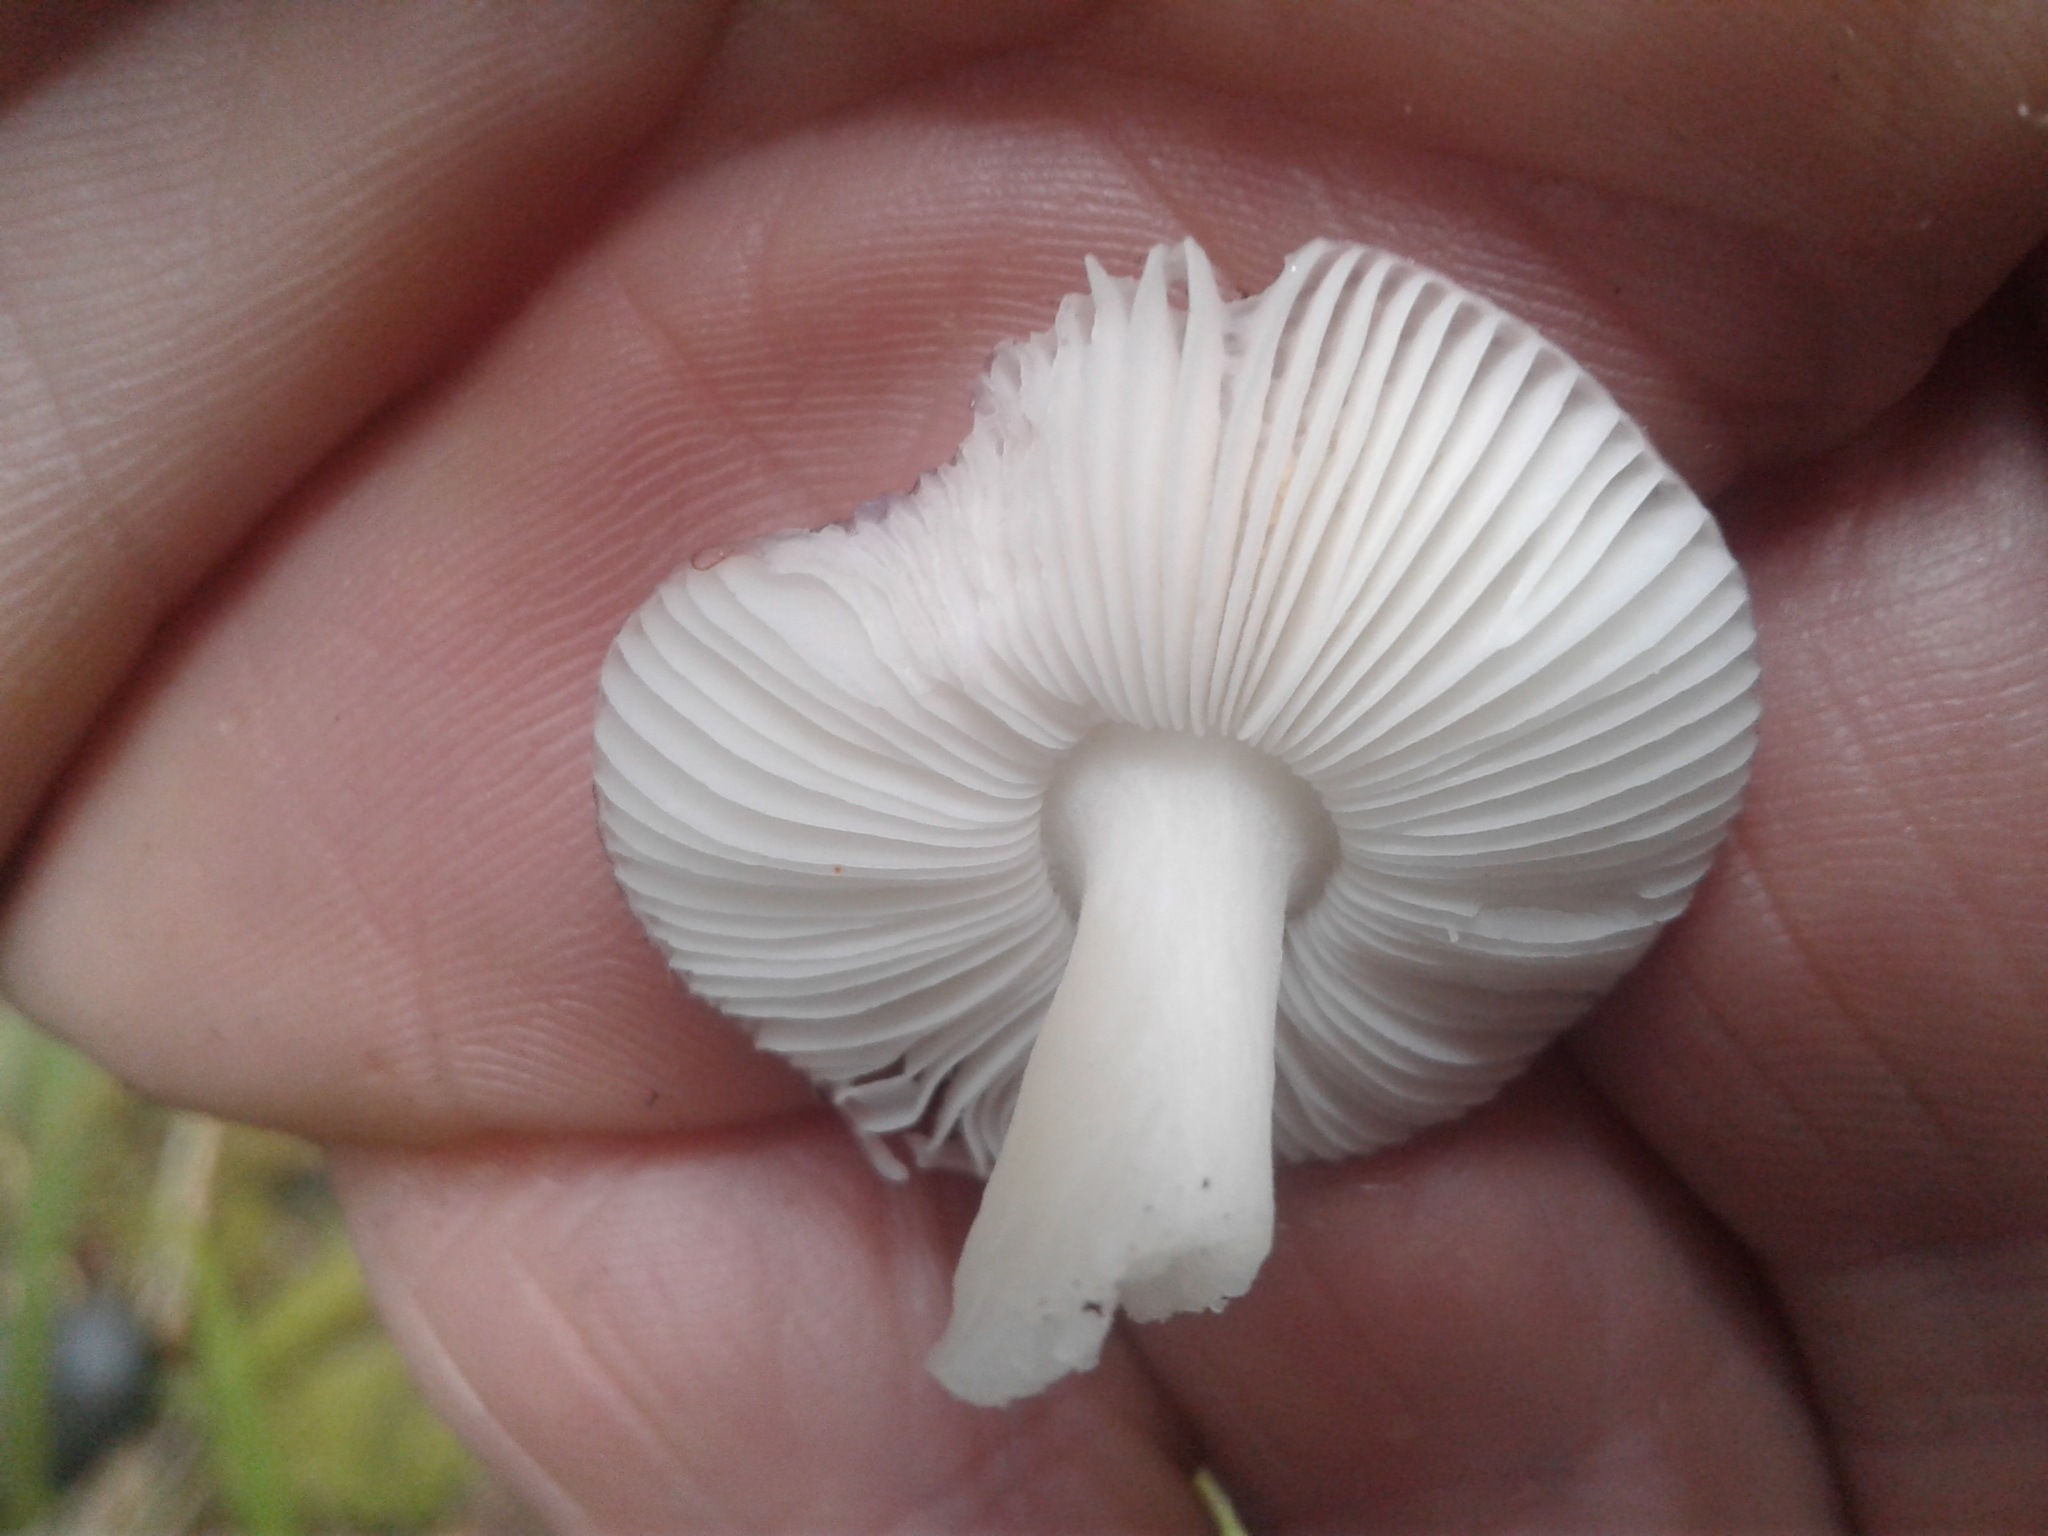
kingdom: Fungi
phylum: Basidiomycota
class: Agaricomycetes
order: Russulales
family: Russulaceae
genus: Russula
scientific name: Russula roseopileata
